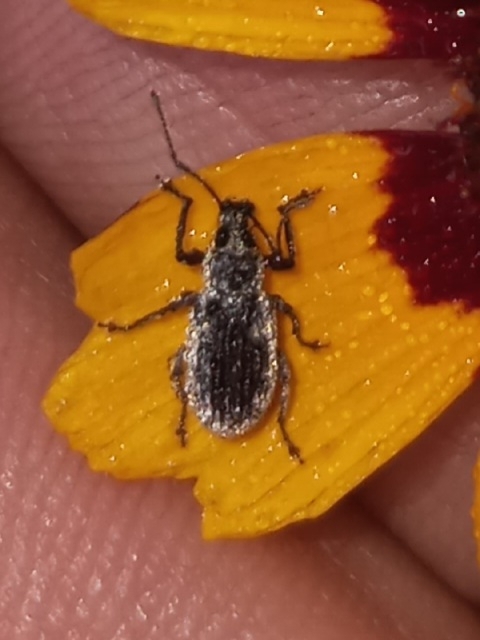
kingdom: Animalia
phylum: Arthropoda
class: Insecta
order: Coleoptera
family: Curculionidae
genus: Cyrtepistomus
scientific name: Cyrtepistomus castaneus
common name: Weevil
